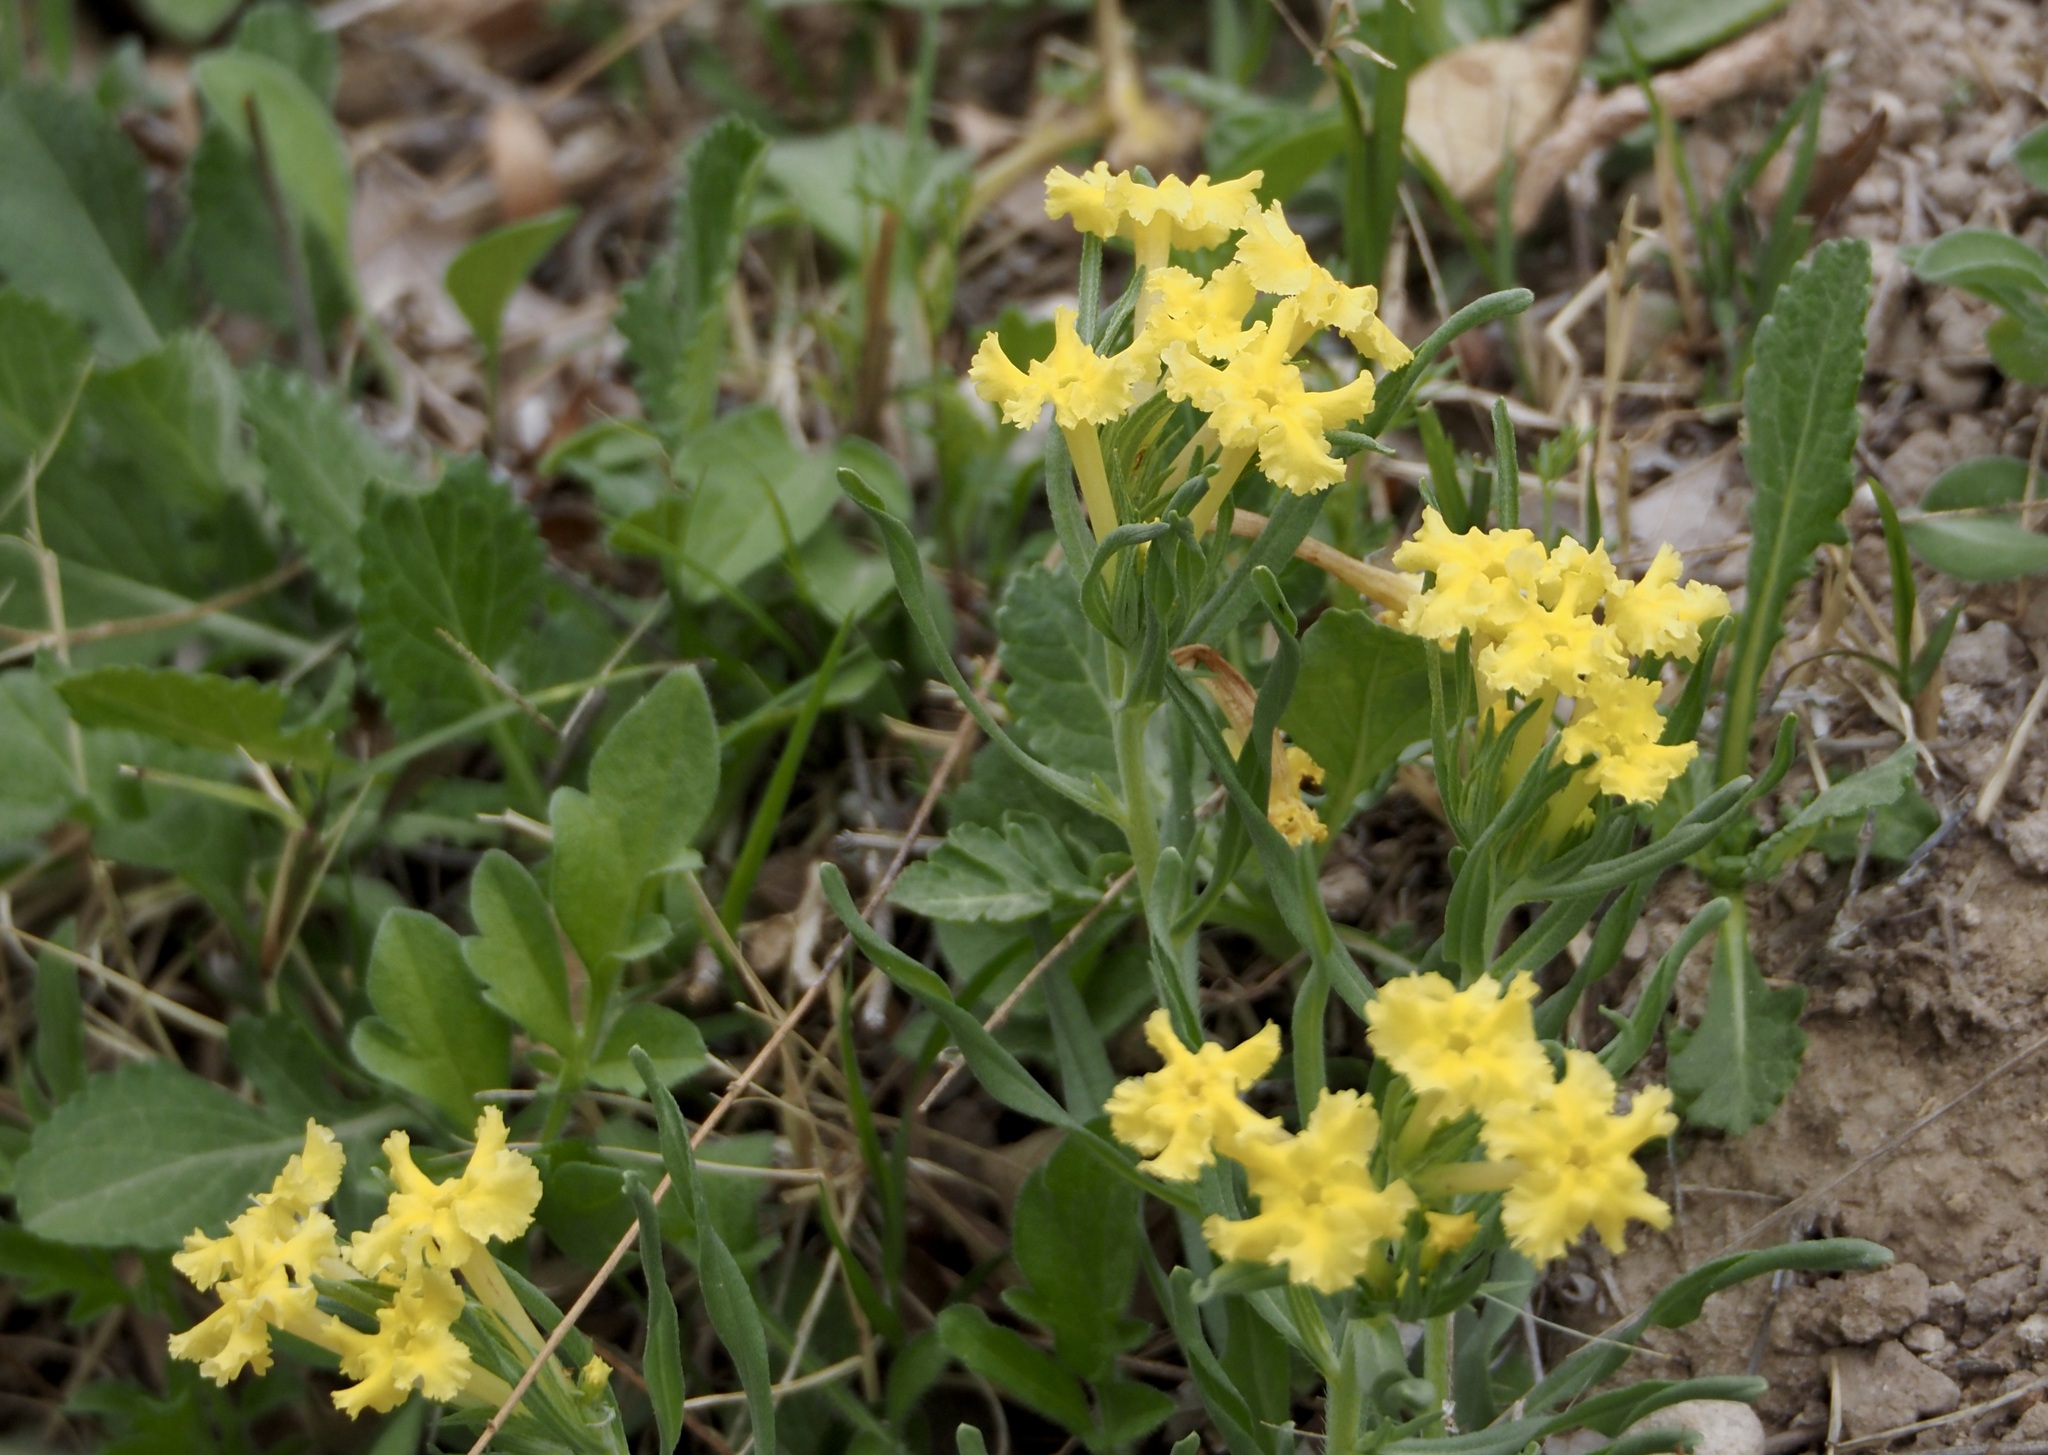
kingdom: Plantae
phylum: Tracheophyta
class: Magnoliopsida
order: Boraginales
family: Boraginaceae
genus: Lithospermum
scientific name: Lithospermum incisum
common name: Fringed gromwell
